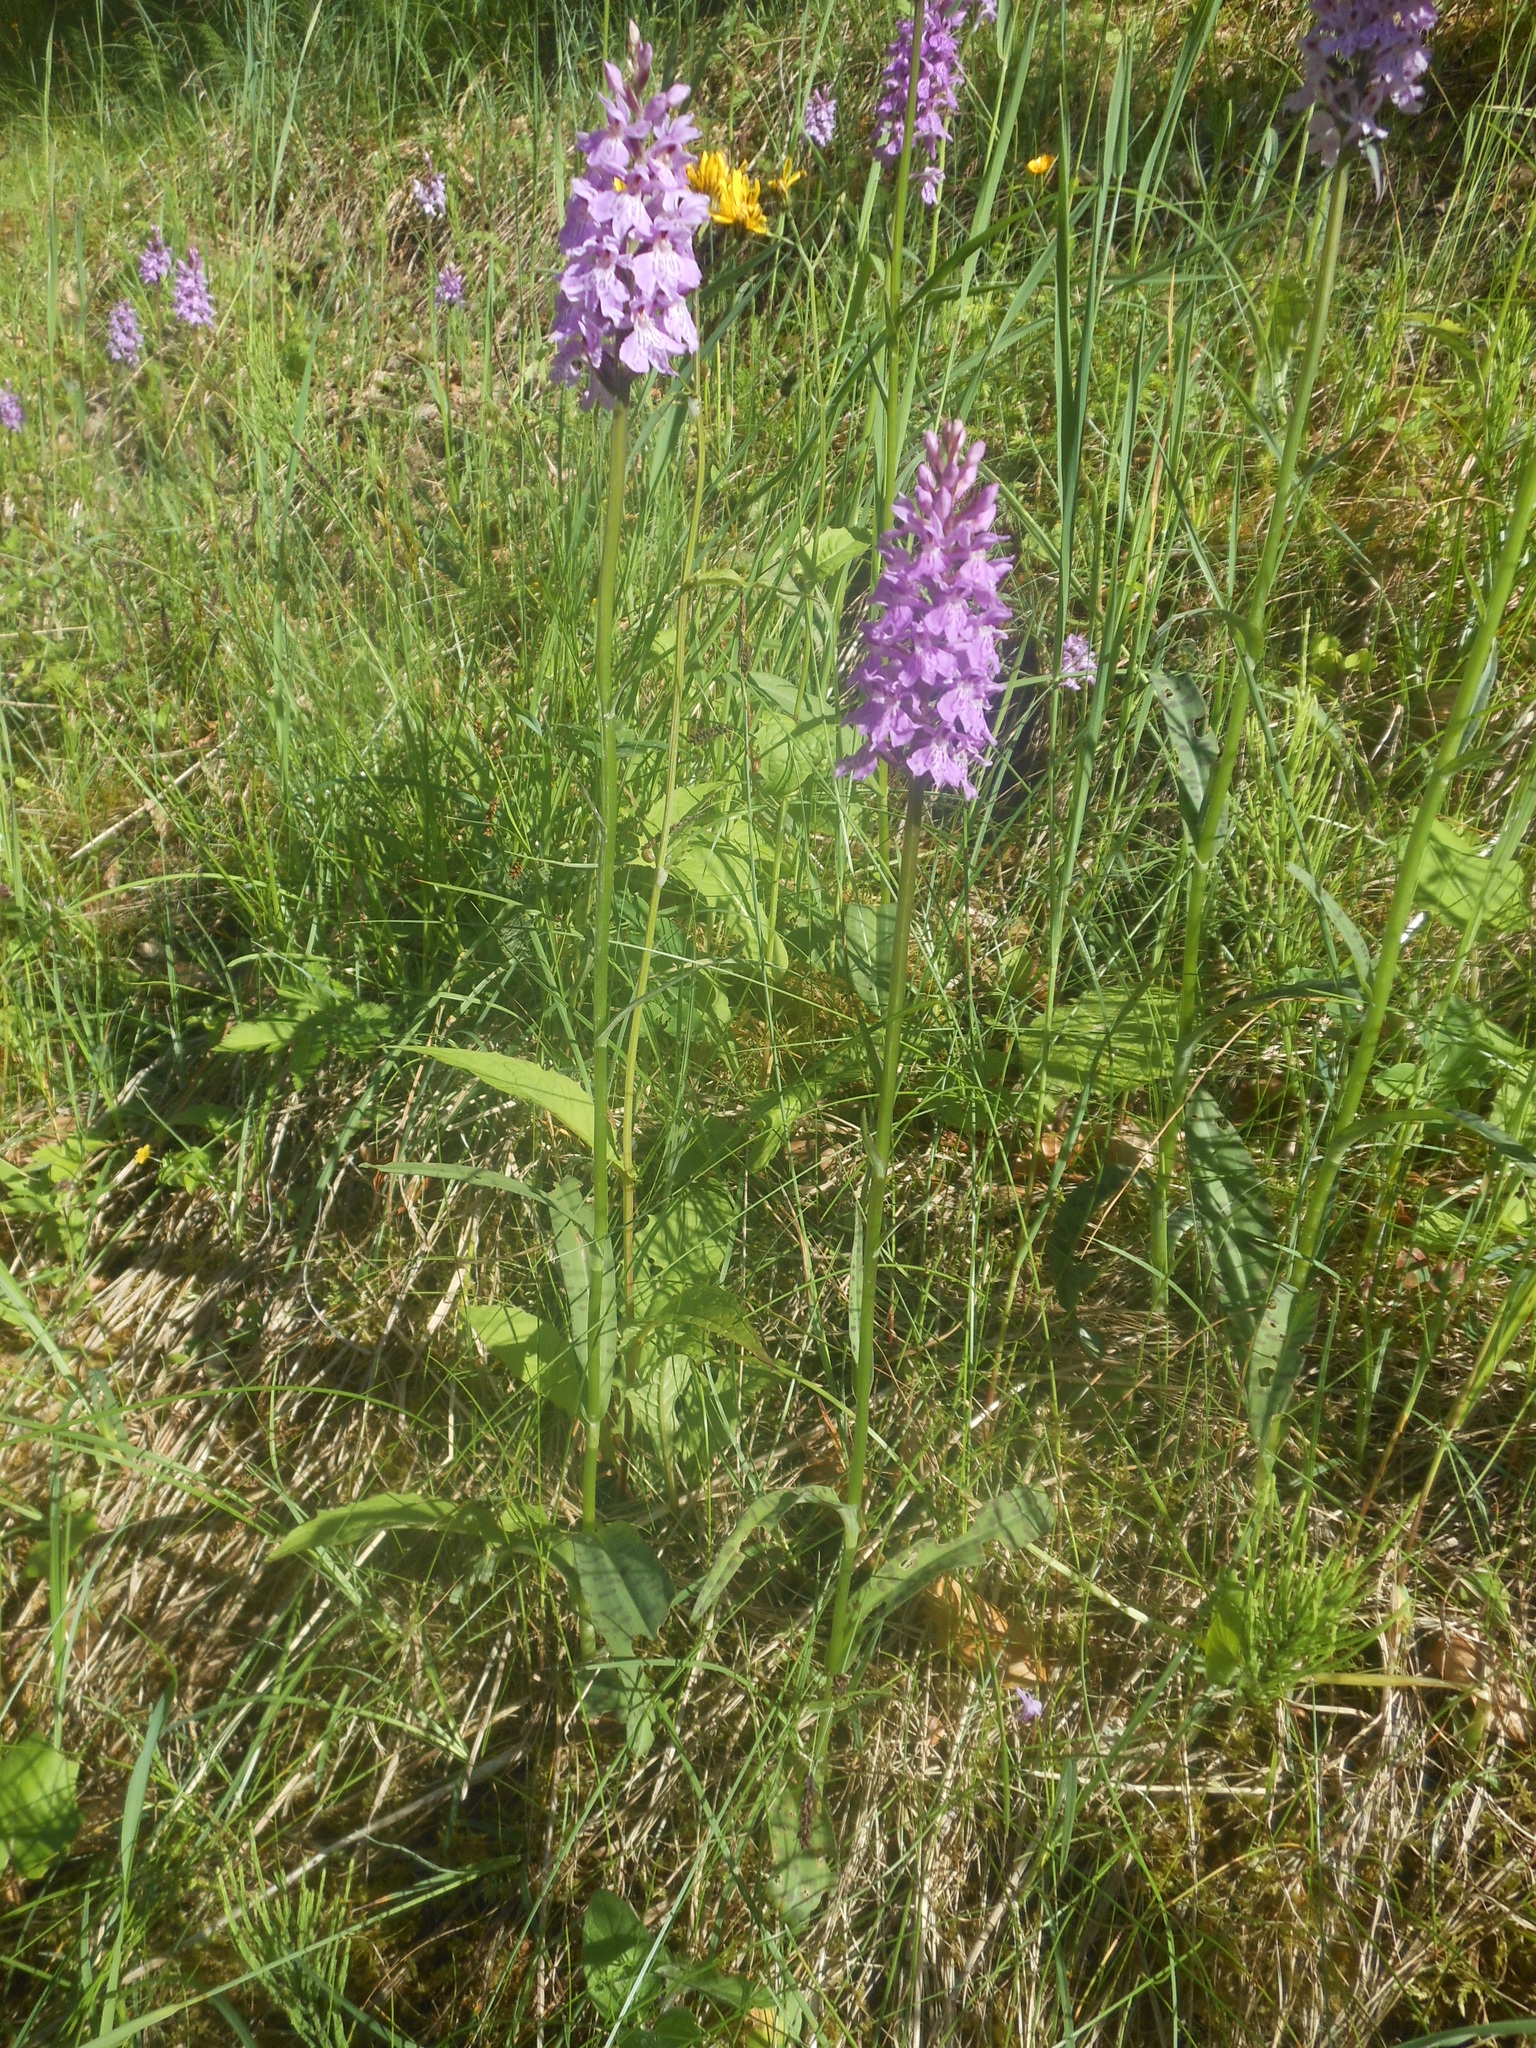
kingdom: Plantae
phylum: Tracheophyta
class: Liliopsida
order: Asparagales
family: Orchidaceae
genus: Dactylorhiza
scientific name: Dactylorhiza maculata
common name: Heath spotted-orchid
